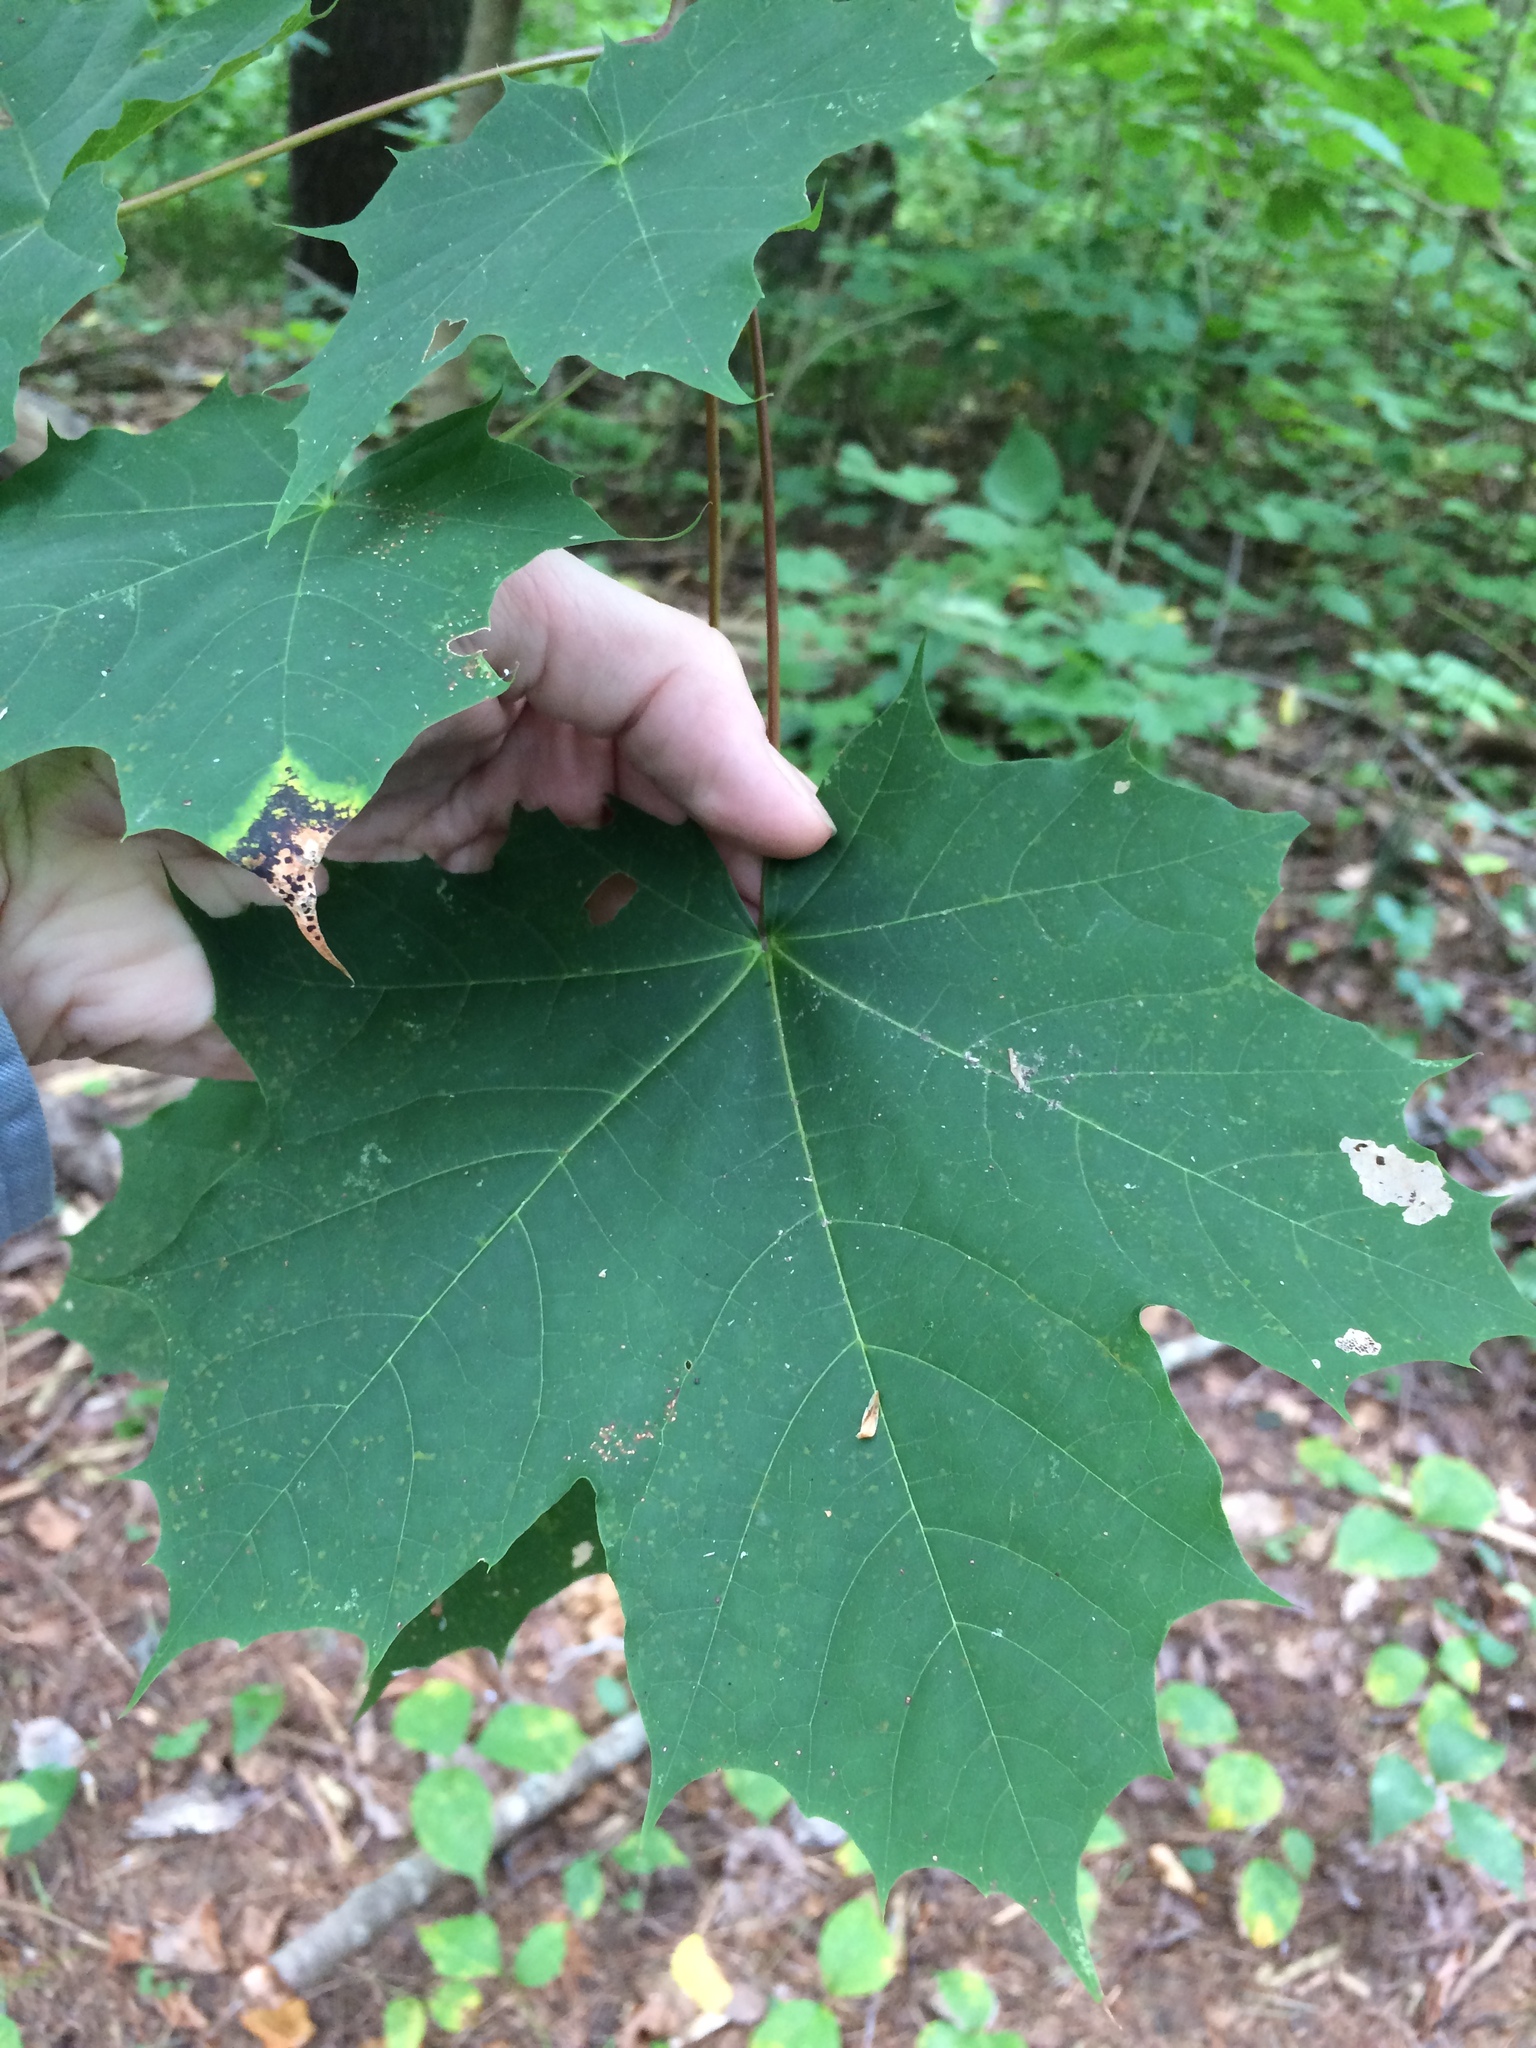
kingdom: Plantae
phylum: Tracheophyta
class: Magnoliopsida
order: Sapindales
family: Sapindaceae
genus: Acer
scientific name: Acer platanoides
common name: Norway maple
